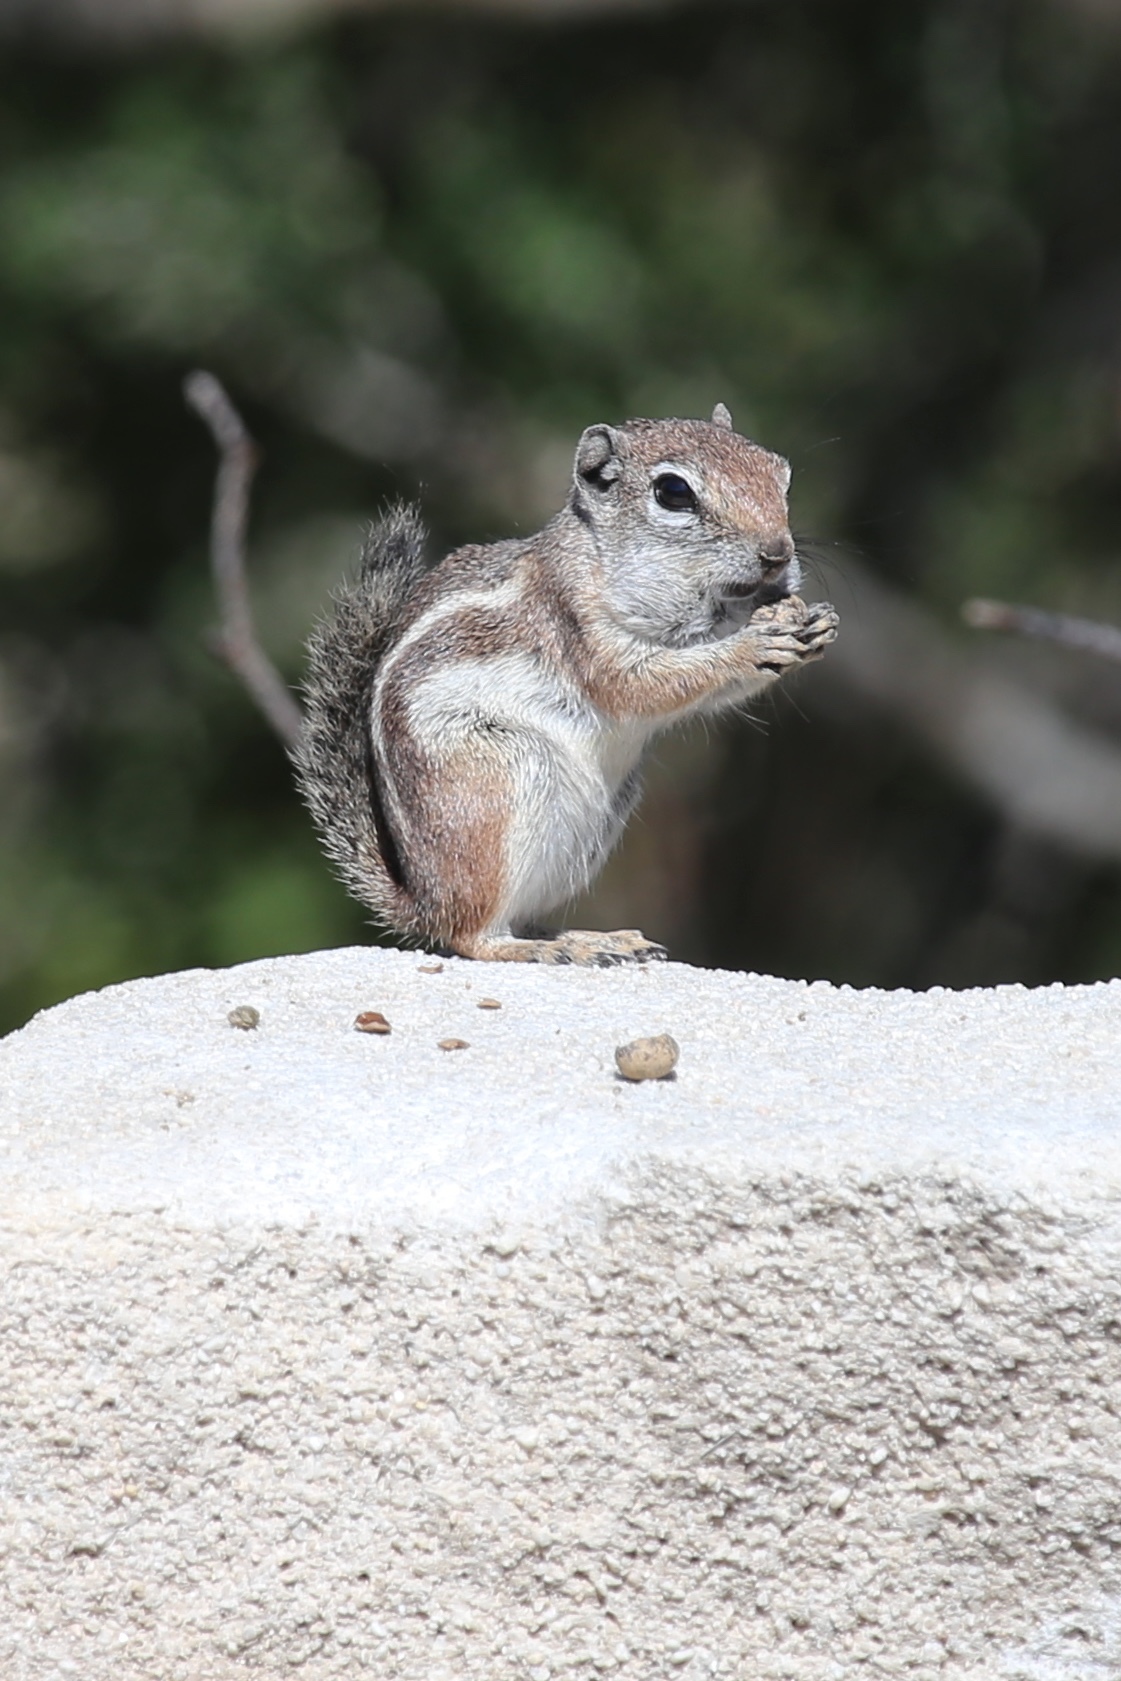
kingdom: Animalia
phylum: Chordata
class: Mammalia
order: Rodentia
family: Sciuridae
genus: Ammospermophilus
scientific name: Ammospermophilus leucurus
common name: White-tailed antelope squirrel
